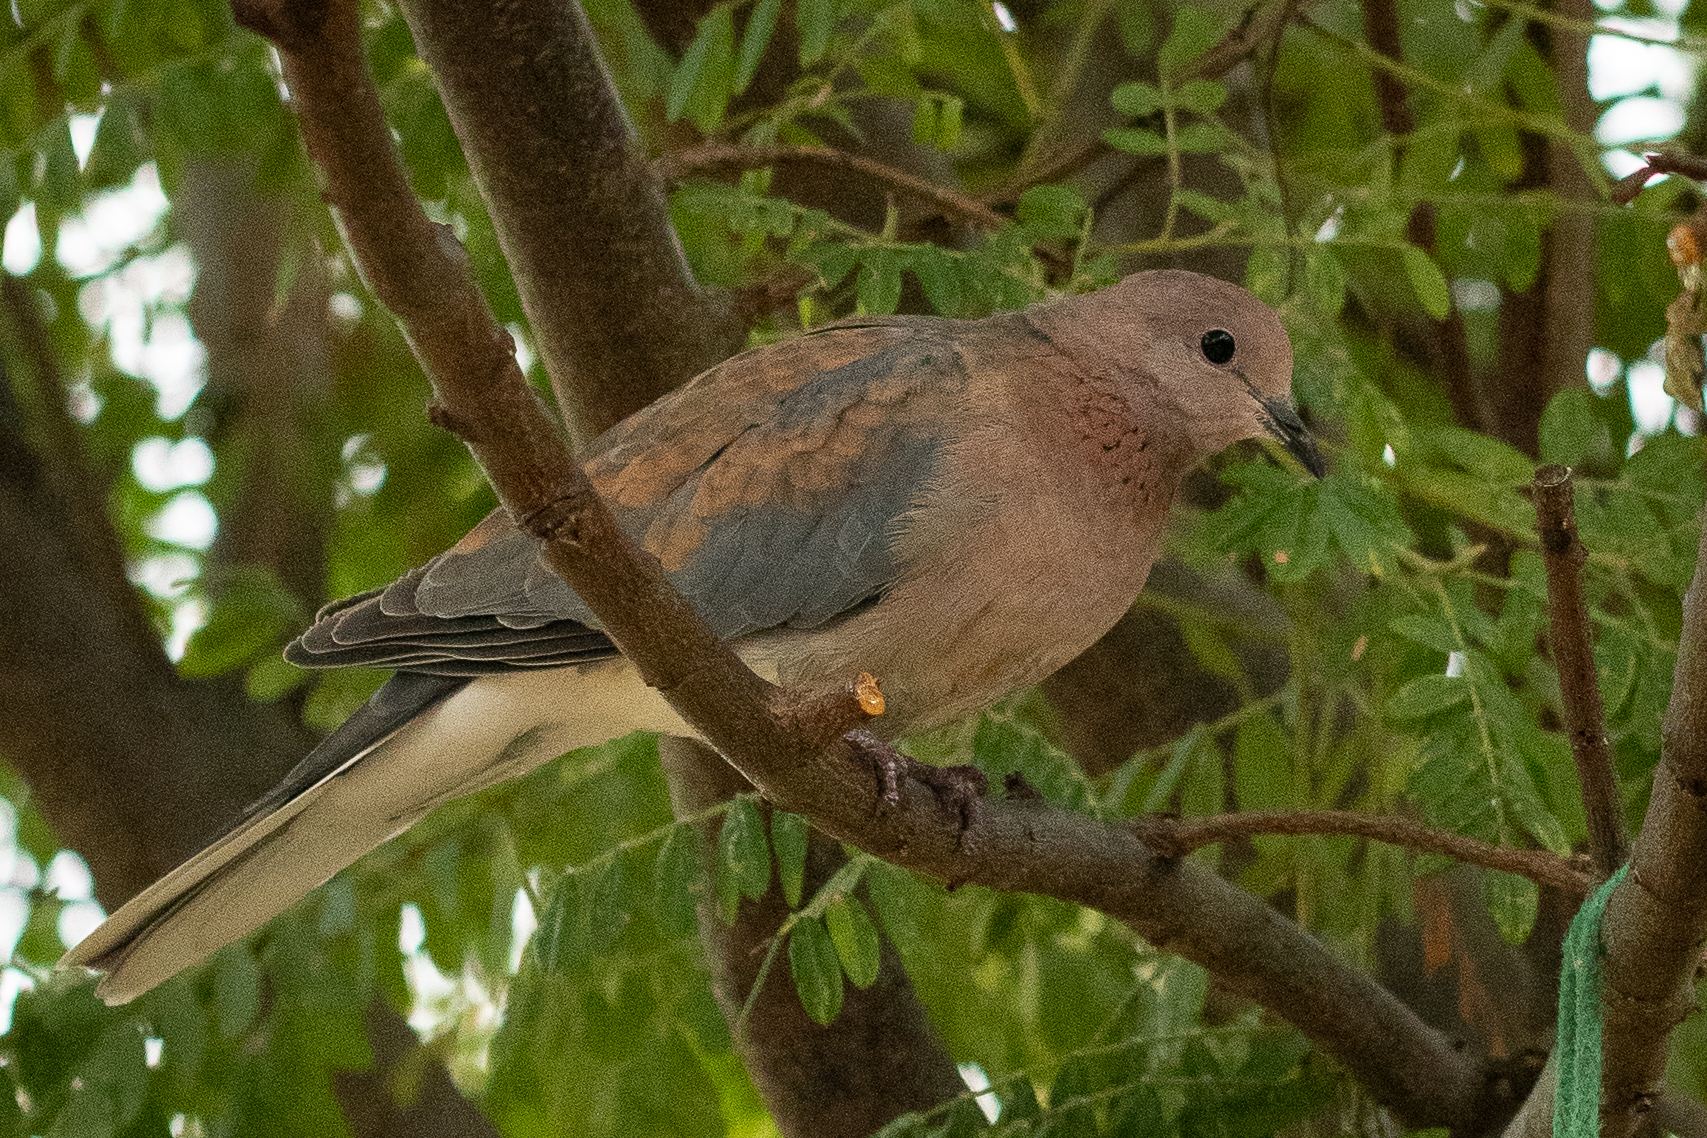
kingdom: Animalia
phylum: Chordata
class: Aves
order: Columbiformes
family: Columbidae
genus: Spilopelia
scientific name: Spilopelia senegalensis
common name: Laughing dove
